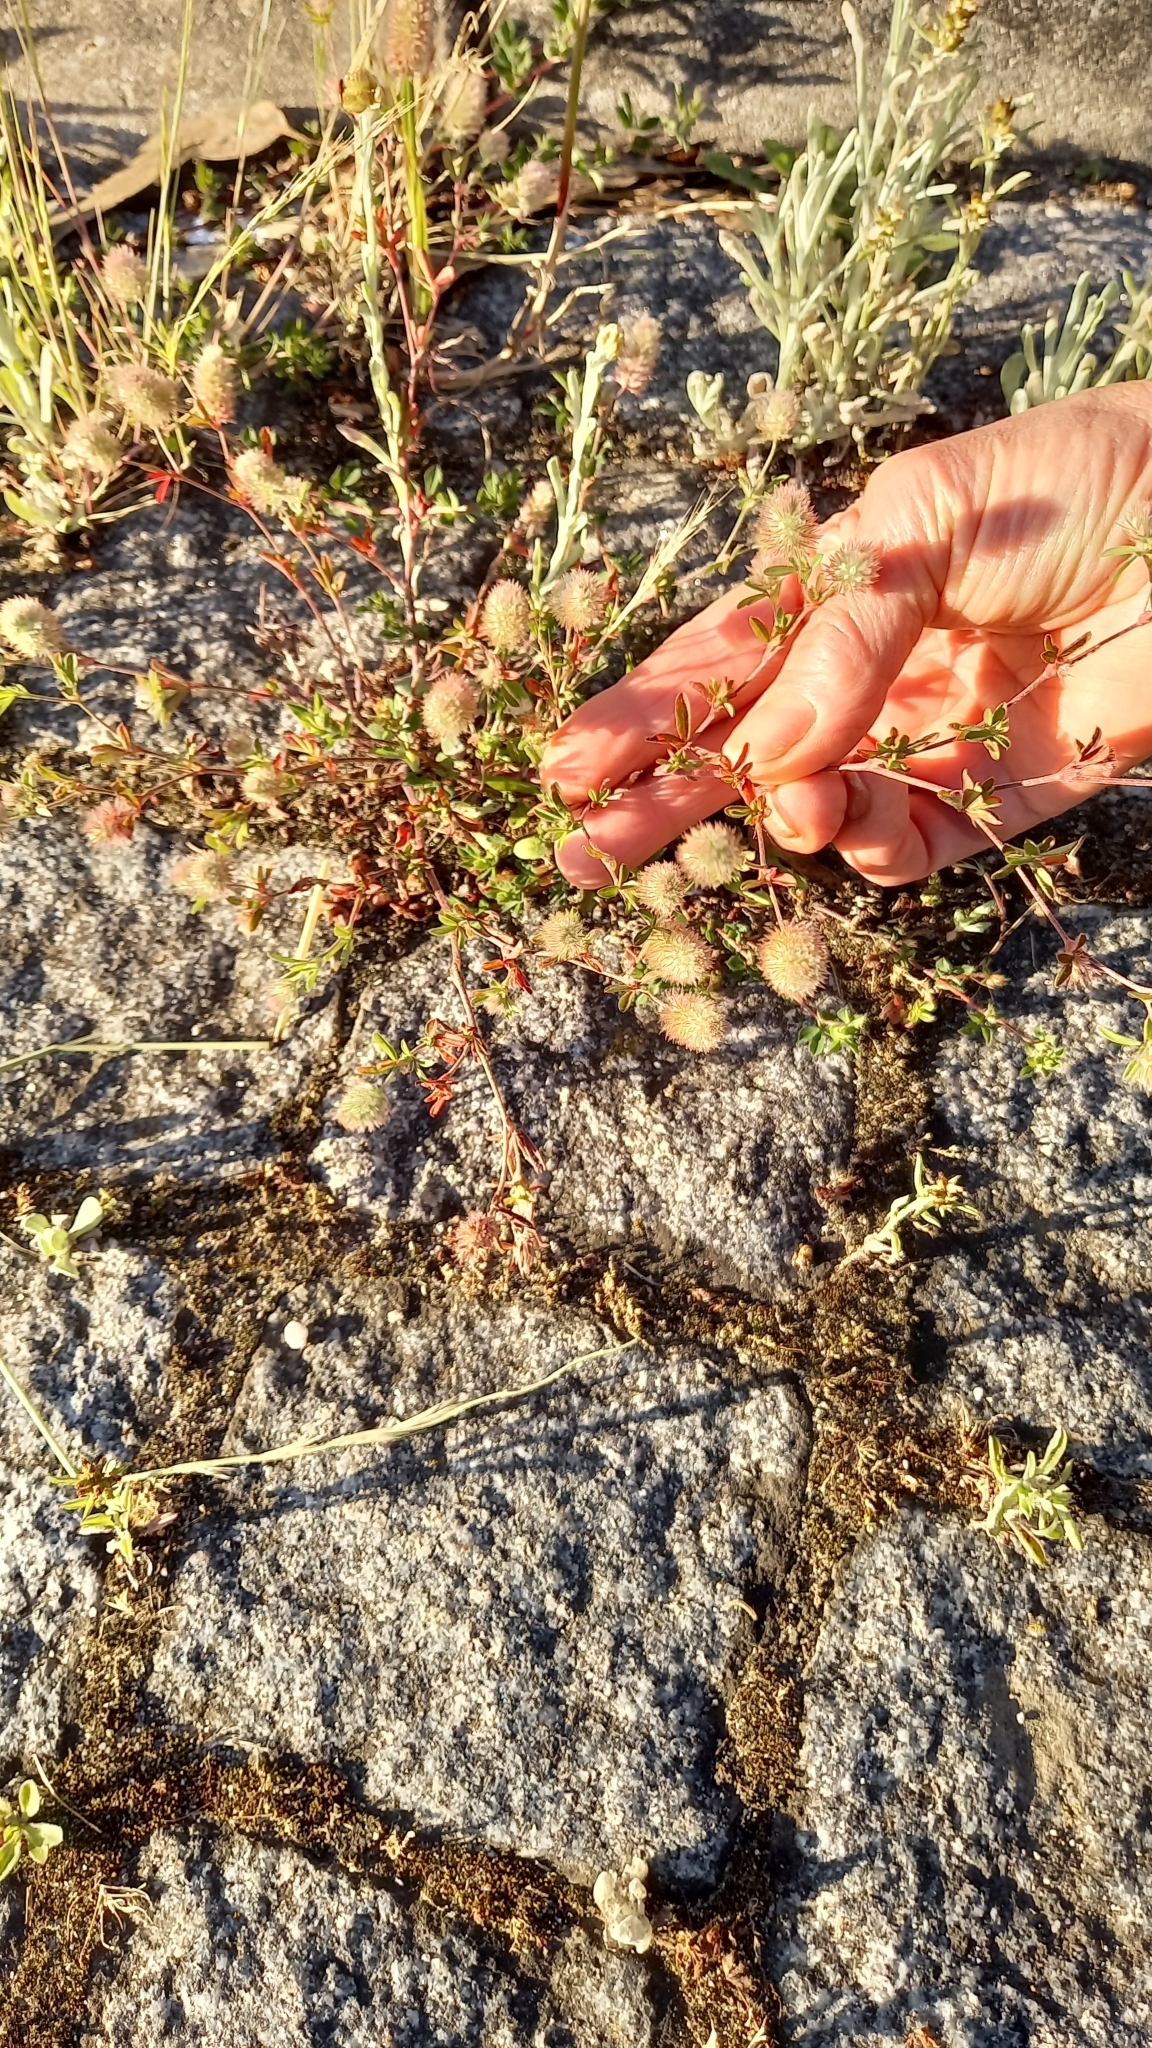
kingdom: Plantae
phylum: Tracheophyta
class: Magnoliopsida
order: Fabales
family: Fabaceae
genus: Trifolium
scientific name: Trifolium arvense
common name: Hare's-foot clover
